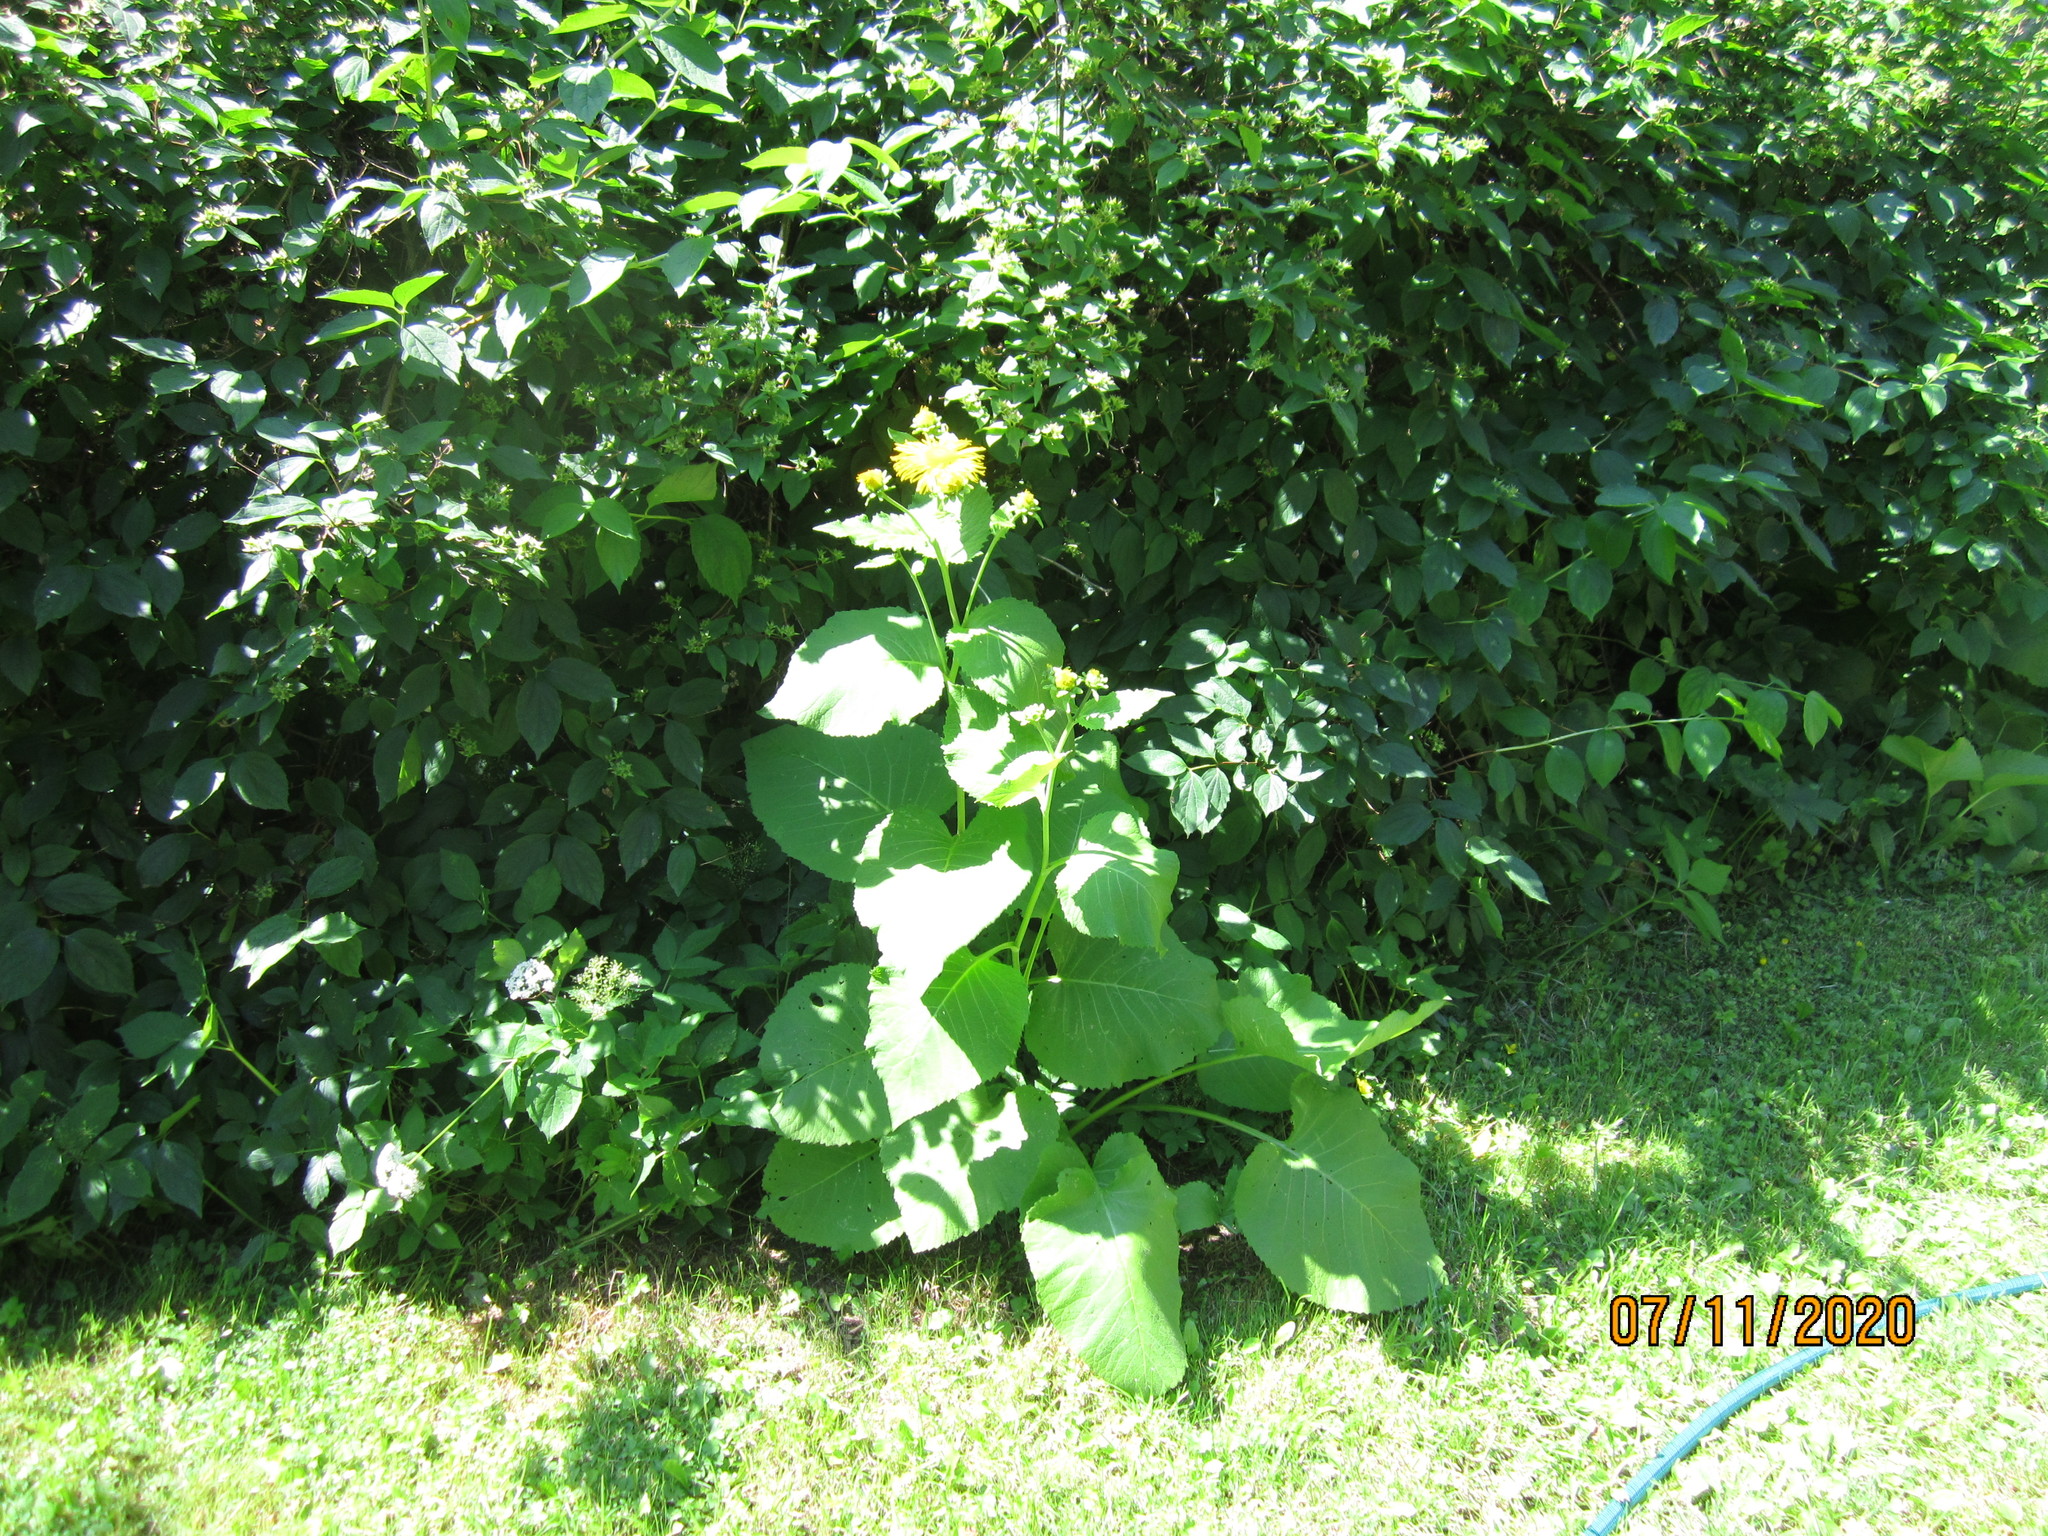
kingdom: Plantae
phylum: Tracheophyta
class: Magnoliopsida
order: Asterales
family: Asteraceae
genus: Telekia
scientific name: Telekia speciosa
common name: Yellow oxeye
